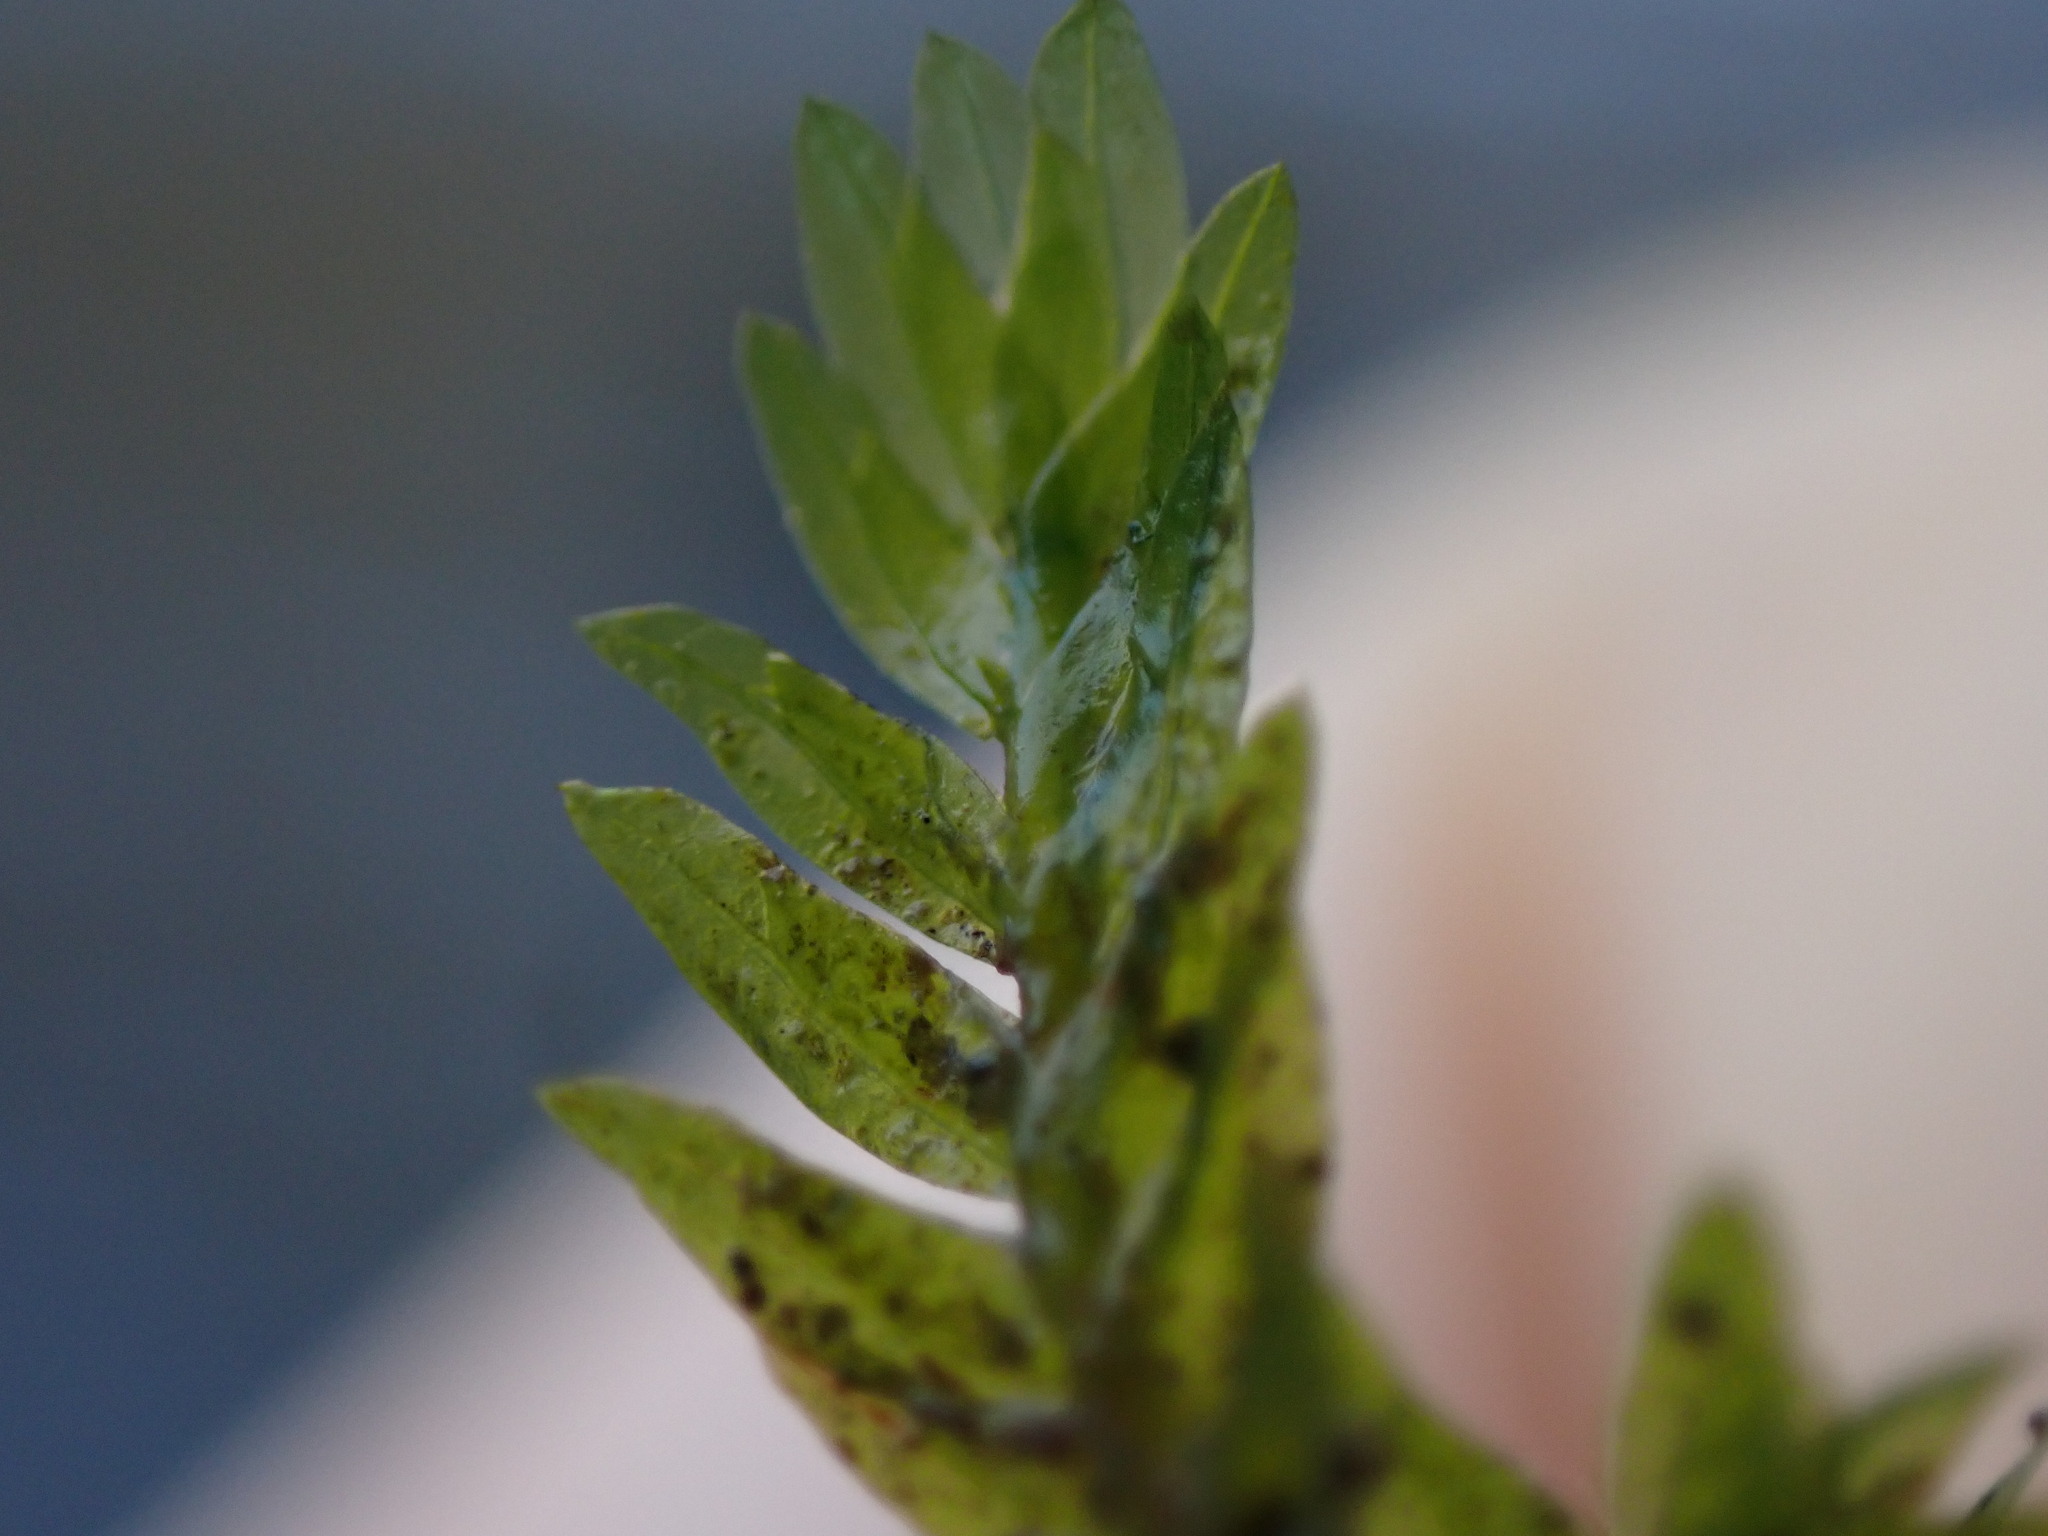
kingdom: Plantae
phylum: Bryophyta
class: Bryopsida
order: Dicranales
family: Fissidentaceae
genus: Fissidens
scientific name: Fissidens adianthoides
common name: Maidenhair pocket moss
